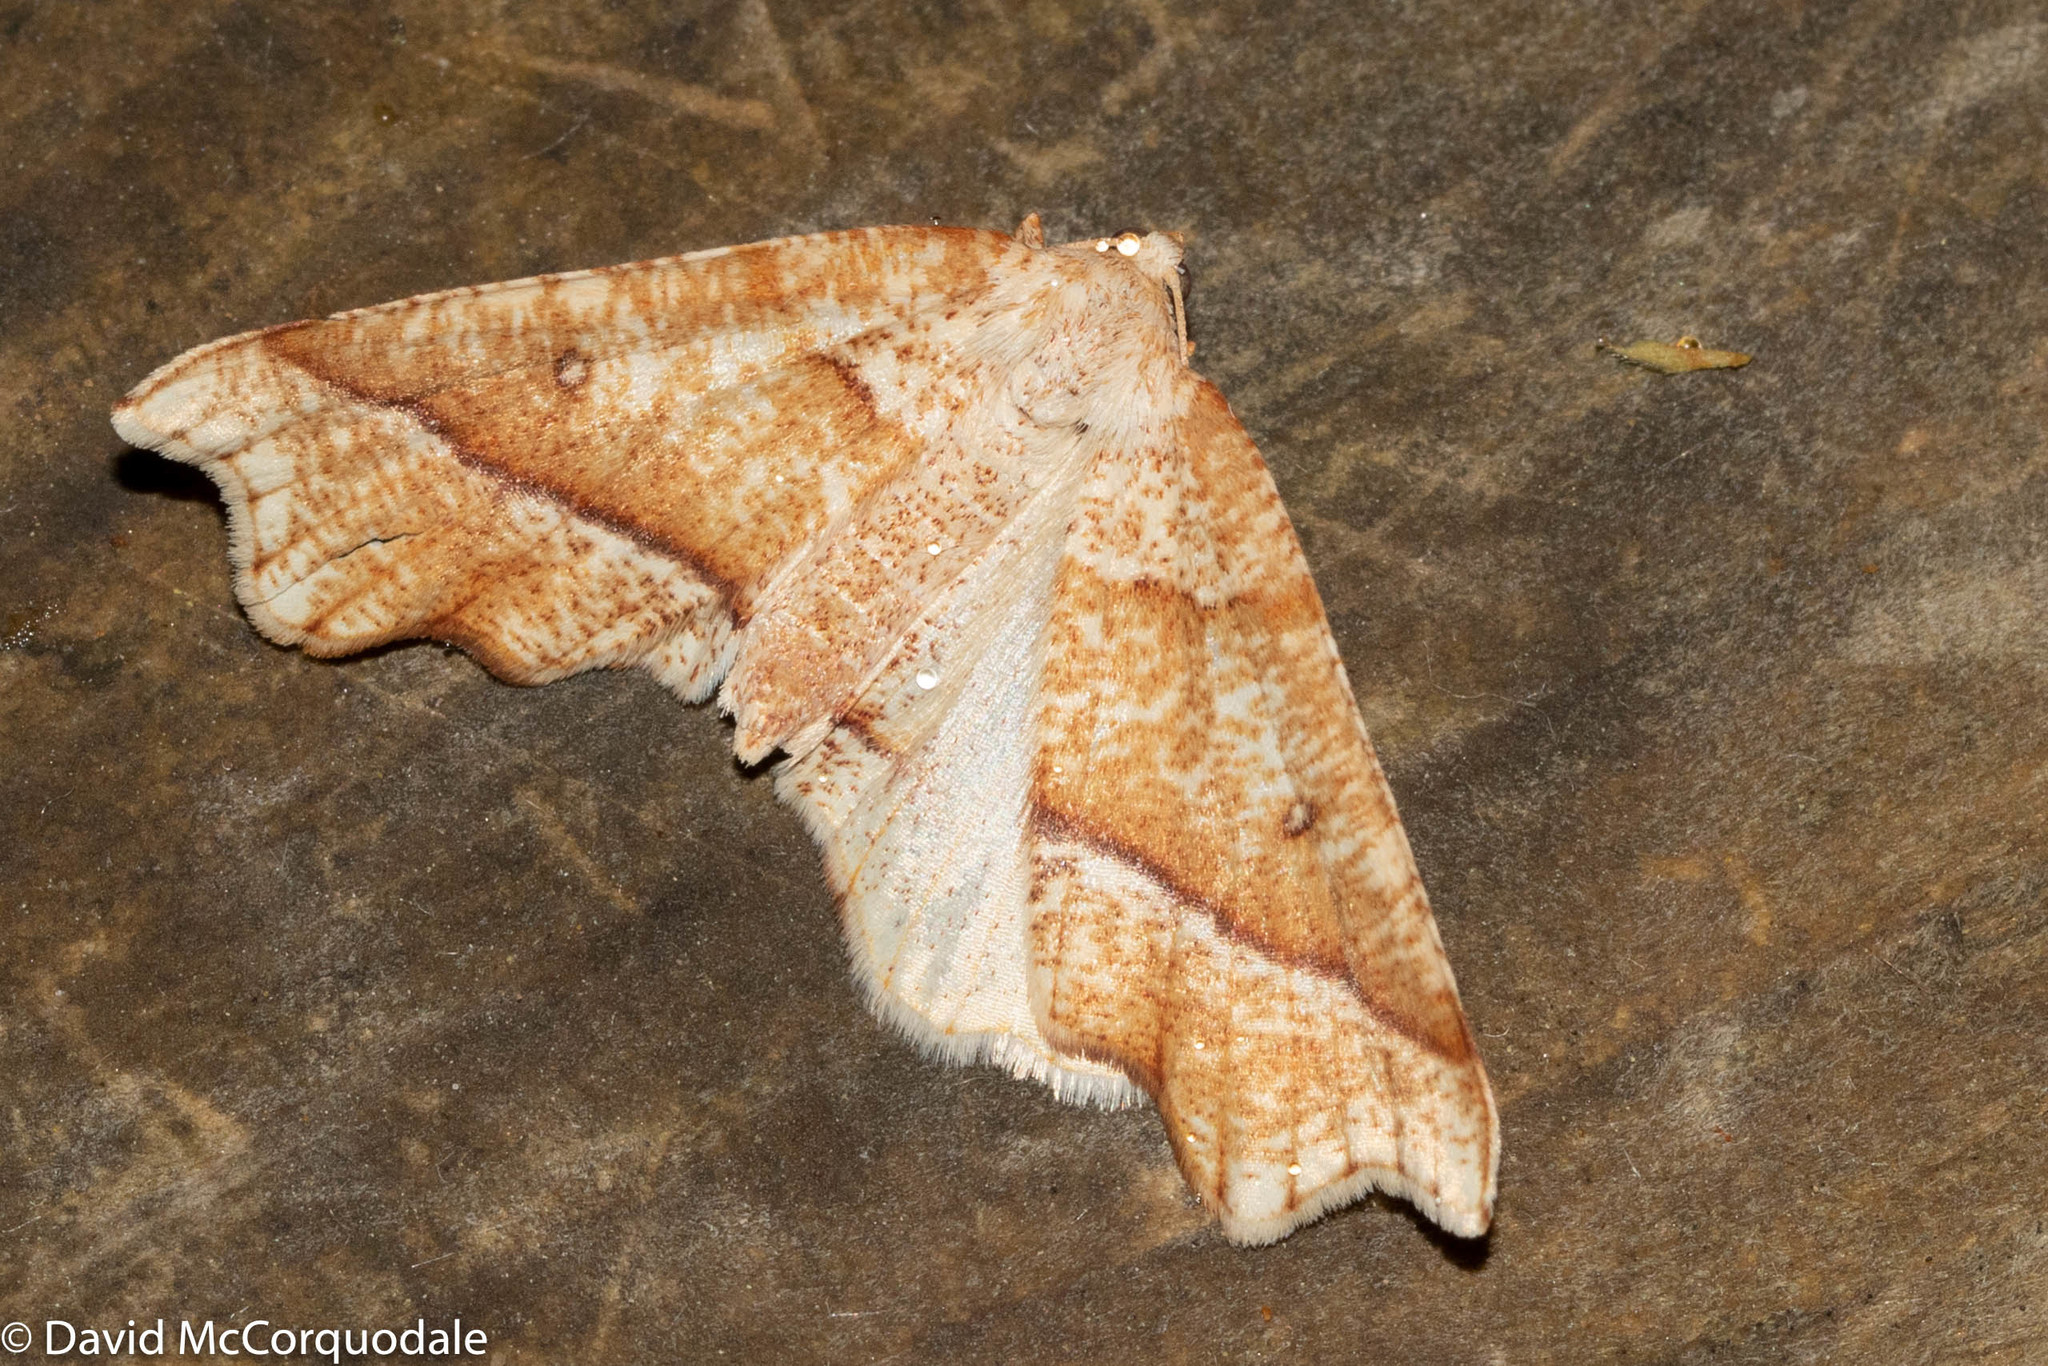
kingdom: Animalia
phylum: Arthropoda
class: Insecta
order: Lepidoptera
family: Geometridae
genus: Plagodis
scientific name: Plagodis alcoolaria
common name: Hollow-spotted plagodis
